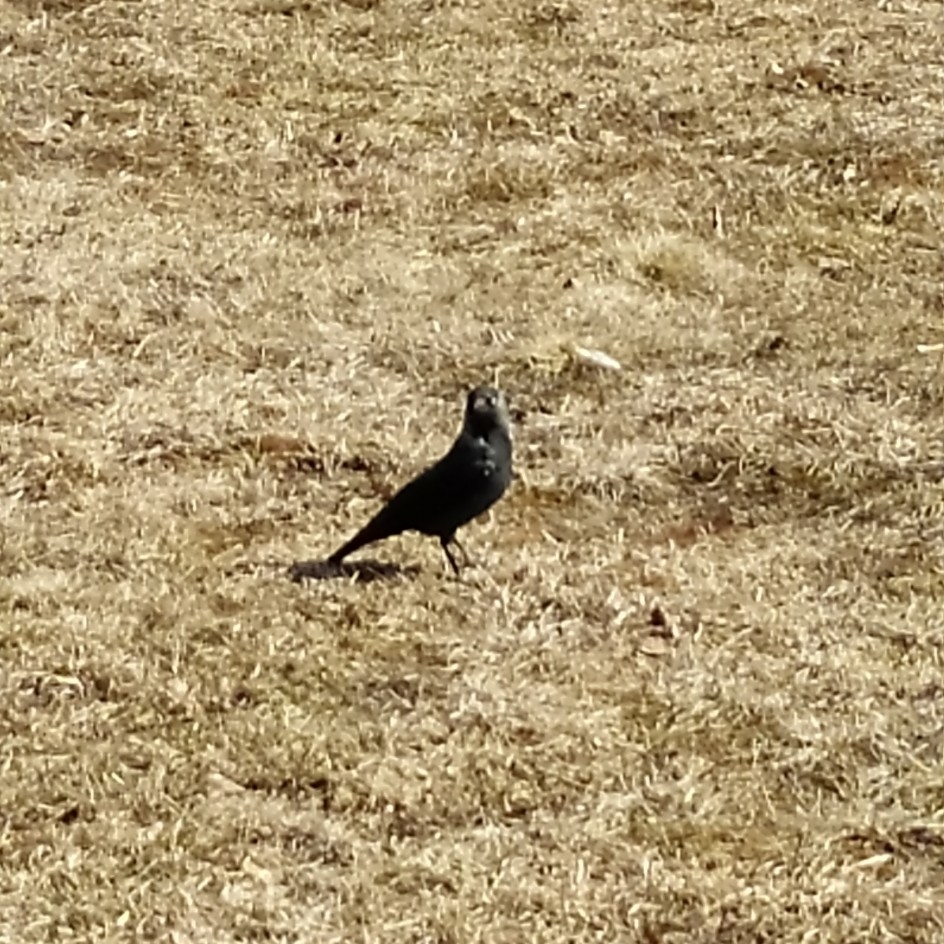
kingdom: Animalia
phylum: Chordata
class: Aves
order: Passeriformes
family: Corvidae
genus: Coloeus
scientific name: Coloeus monedula
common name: Western jackdaw
